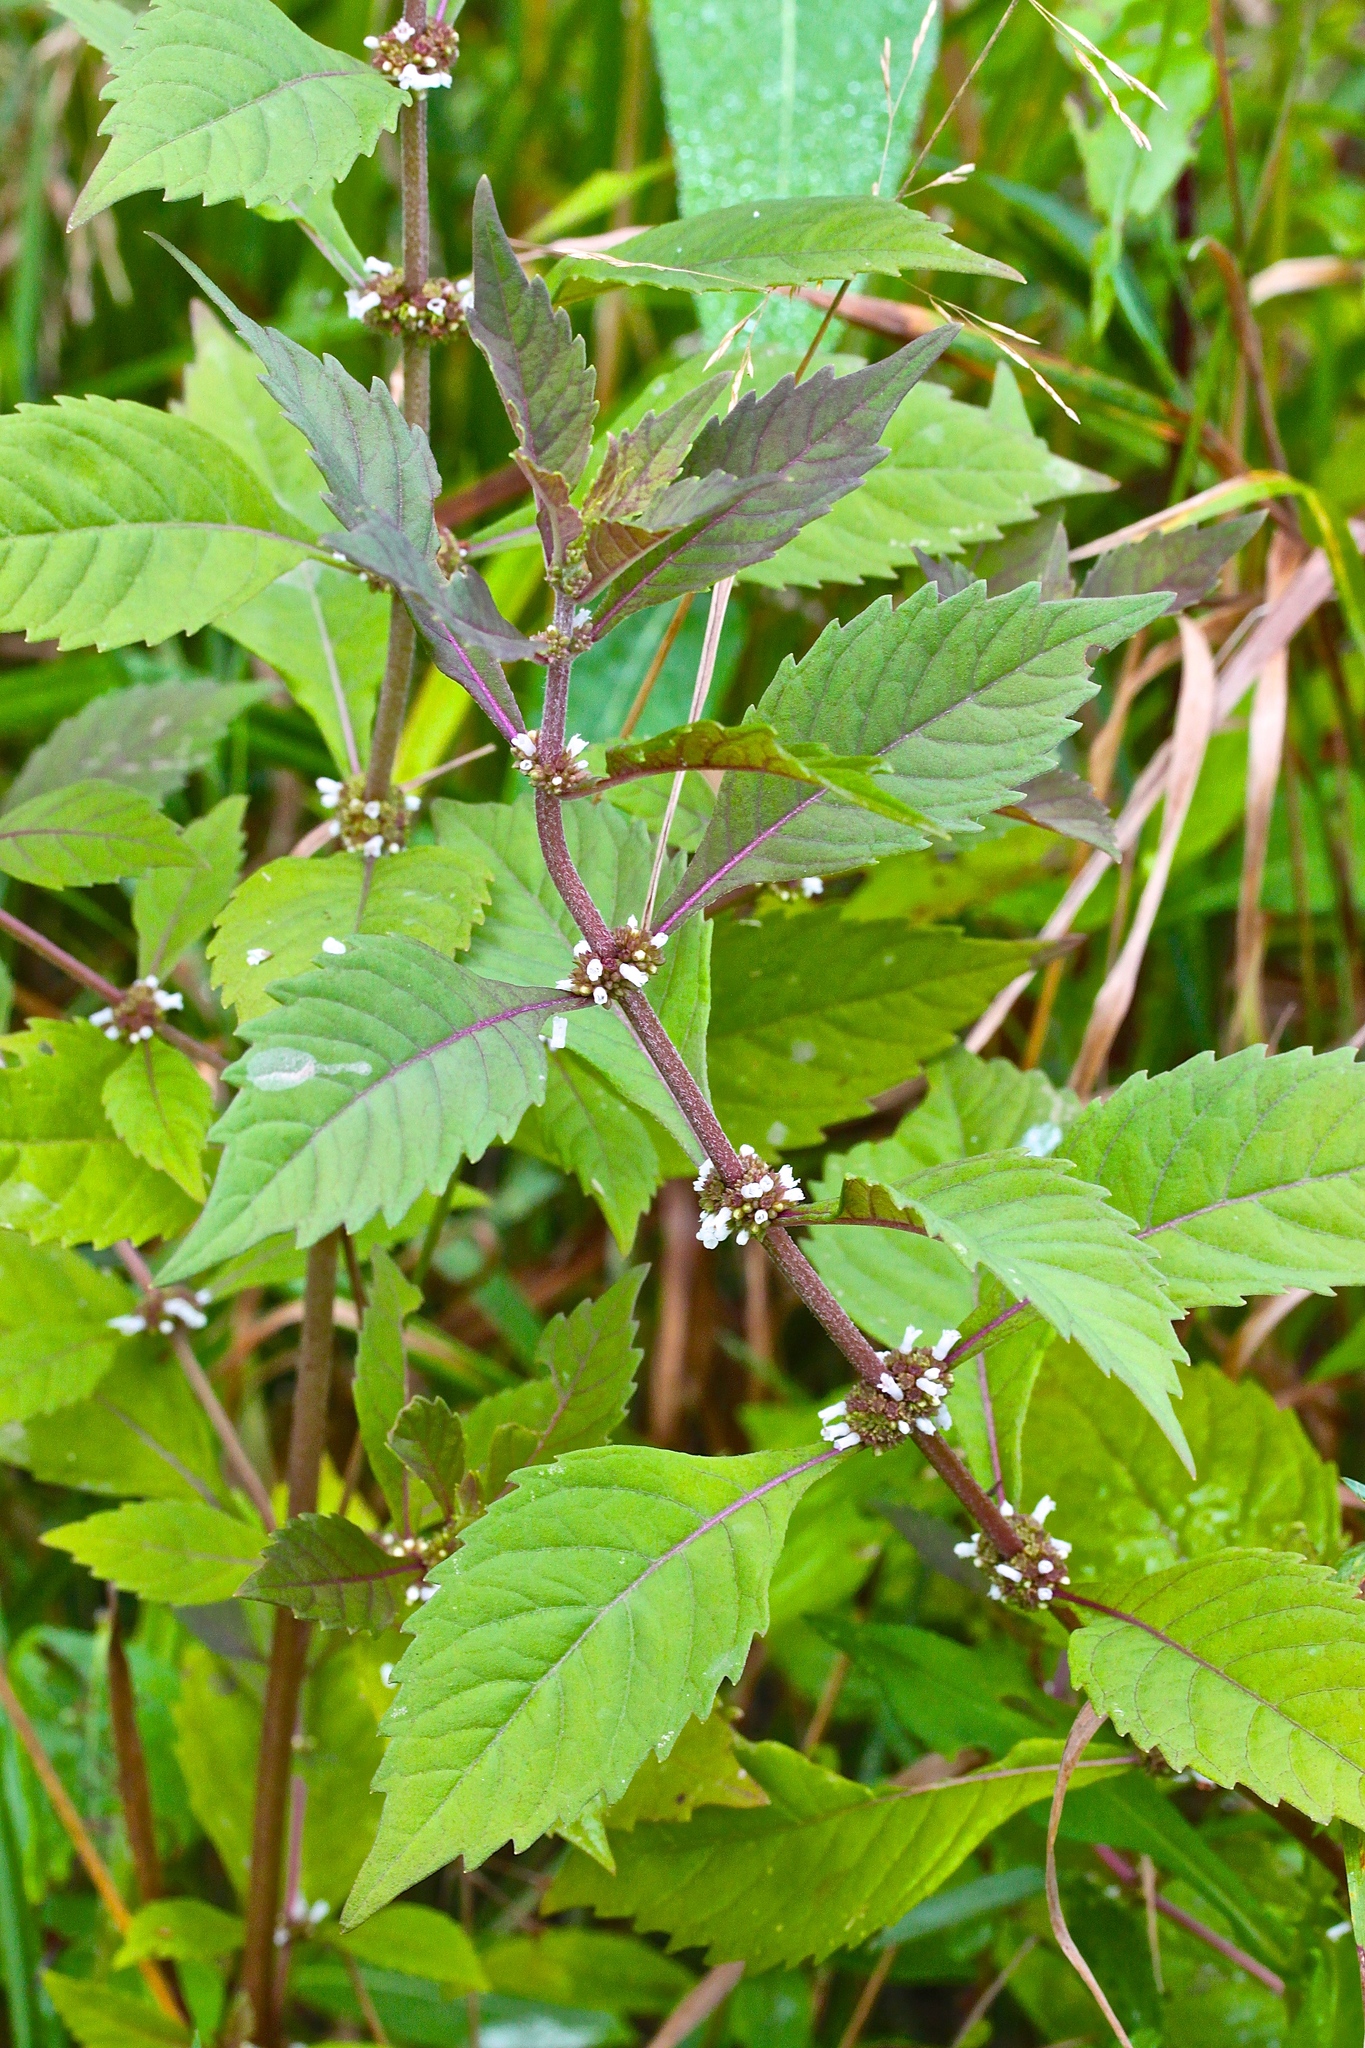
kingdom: Plantae
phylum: Tracheophyta
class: Magnoliopsida
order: Lamiales
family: Lamiaceae
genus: Lycopus
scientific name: Lycopus virginicus
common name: Bugleweed
